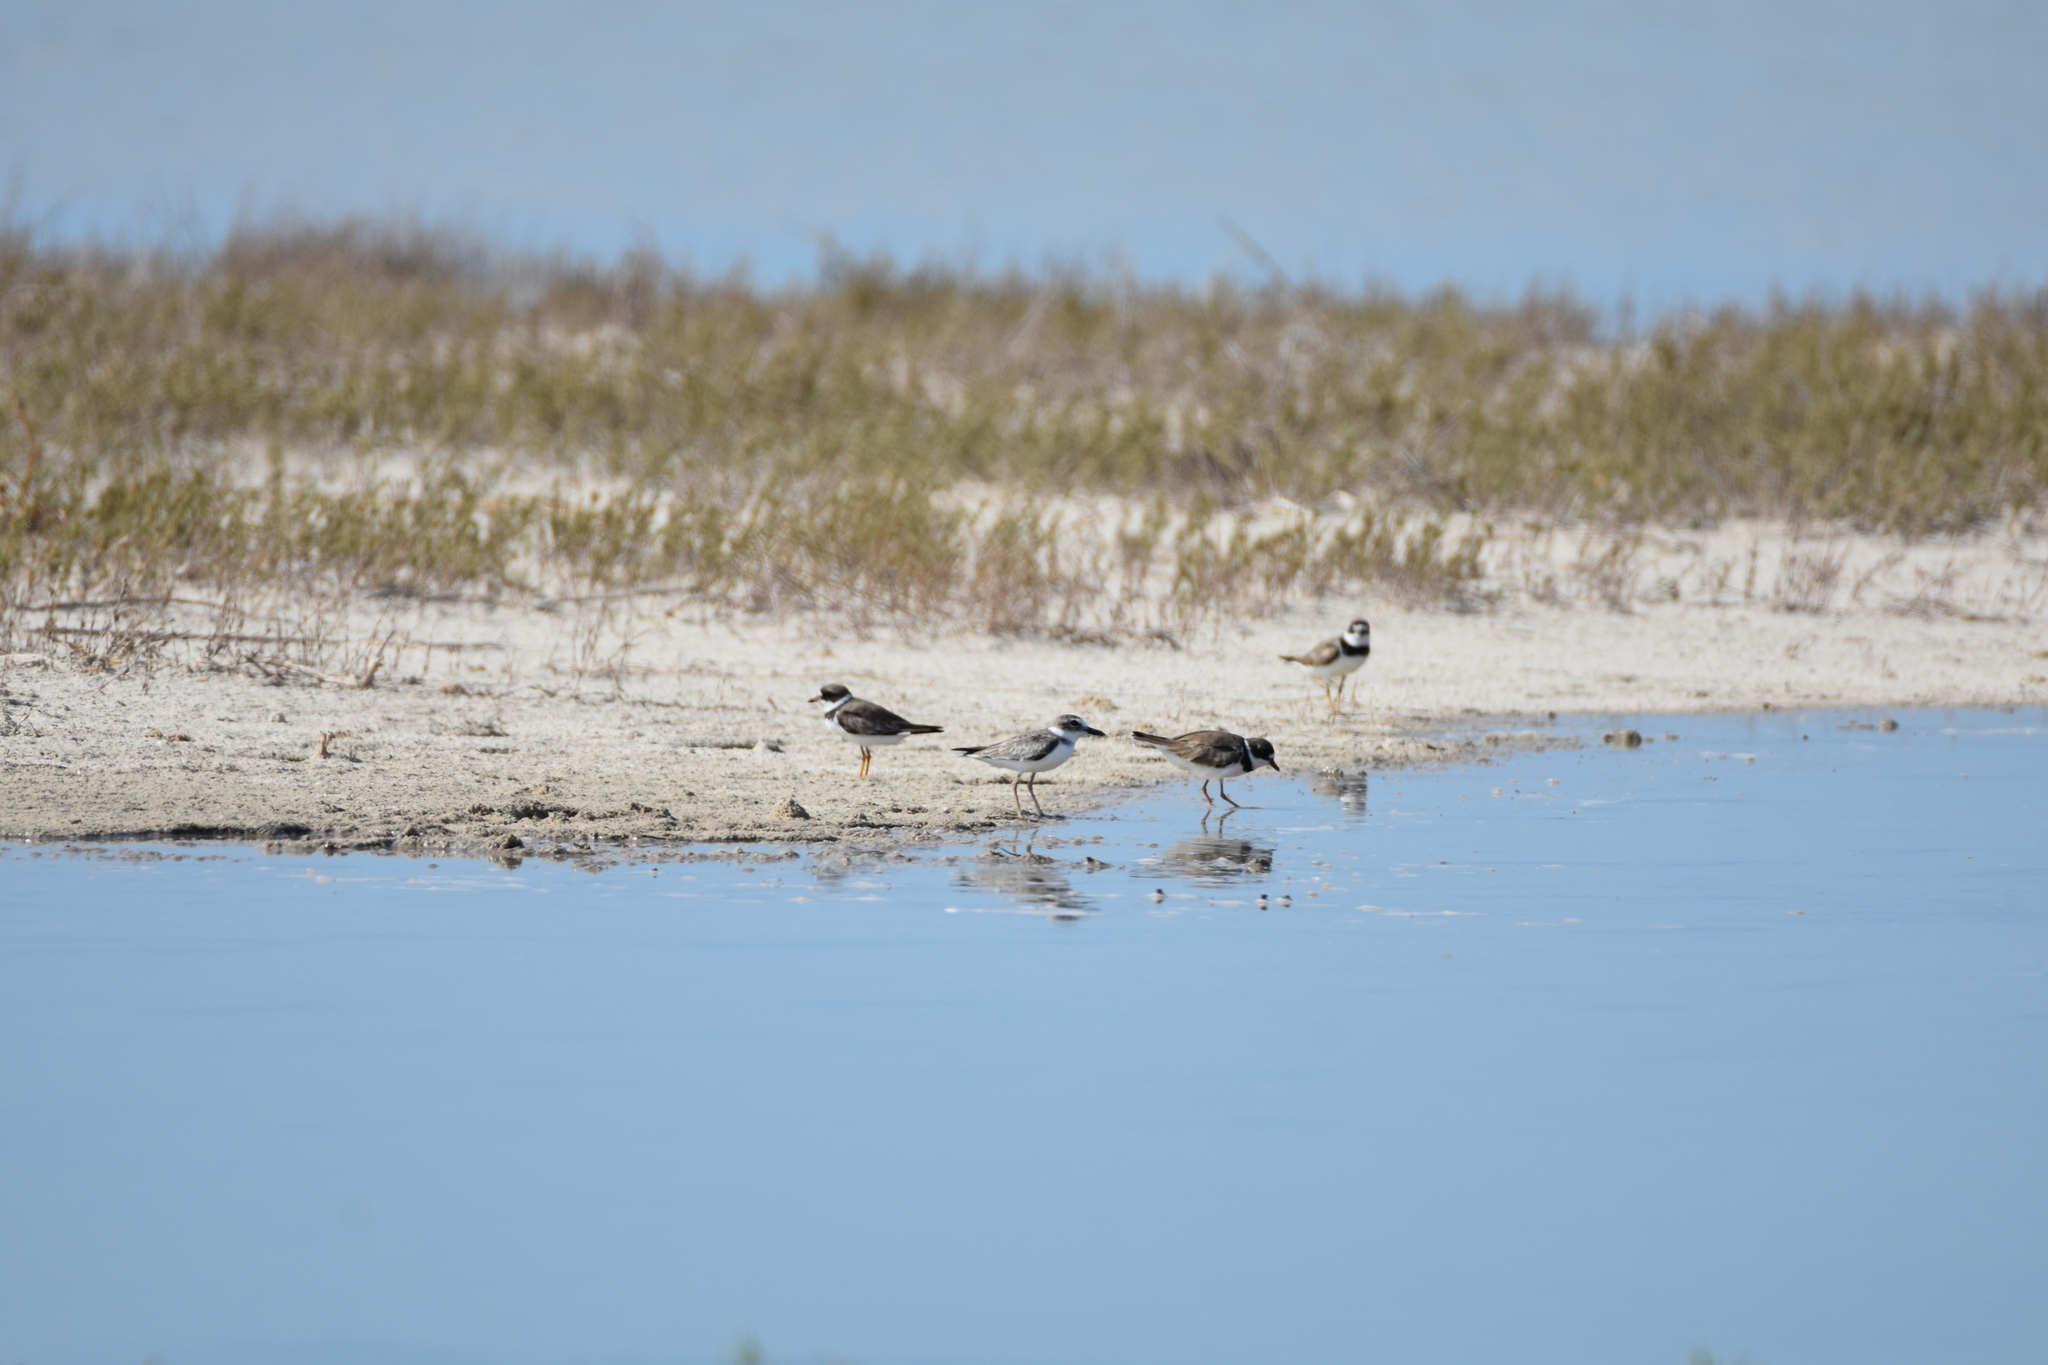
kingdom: Animalia
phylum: Chordata
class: Aves
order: Charadriiformes
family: Charadriidae
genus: Charadrius
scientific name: Charadrius semipalmatus
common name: Semipalmated plover
